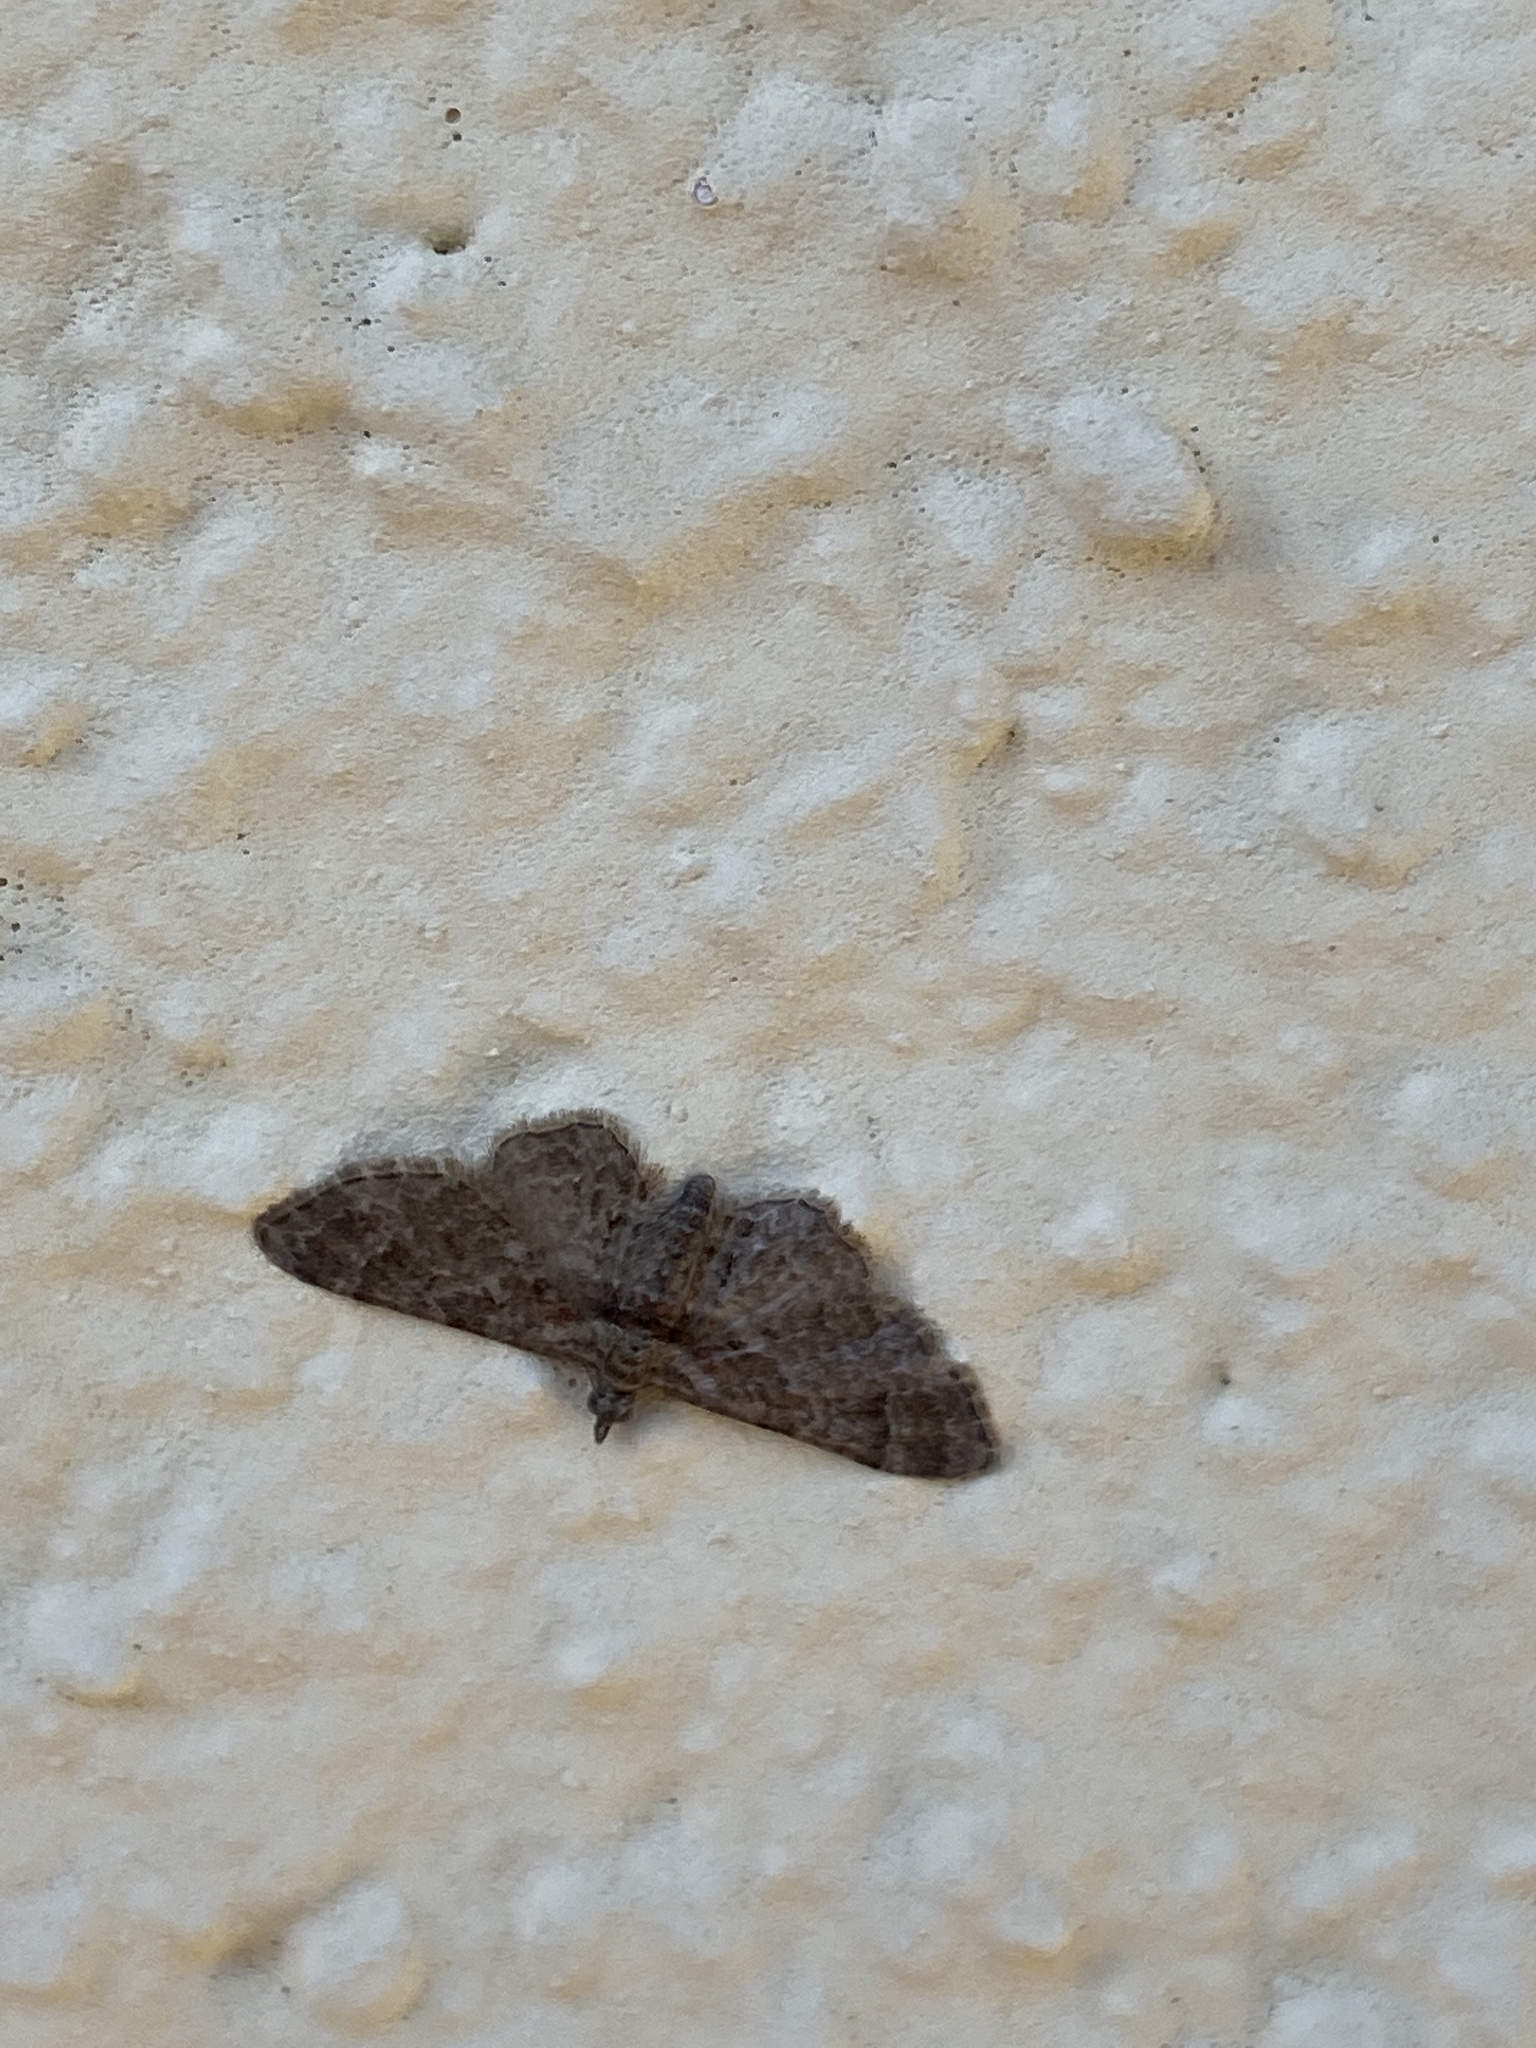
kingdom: Animalia
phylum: Arthropoda
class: Insecta
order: Lepidoptera
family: Geometridae
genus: Gymnoscelis
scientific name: Gymnoscelis rufifasciata
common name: Double-striped pug
